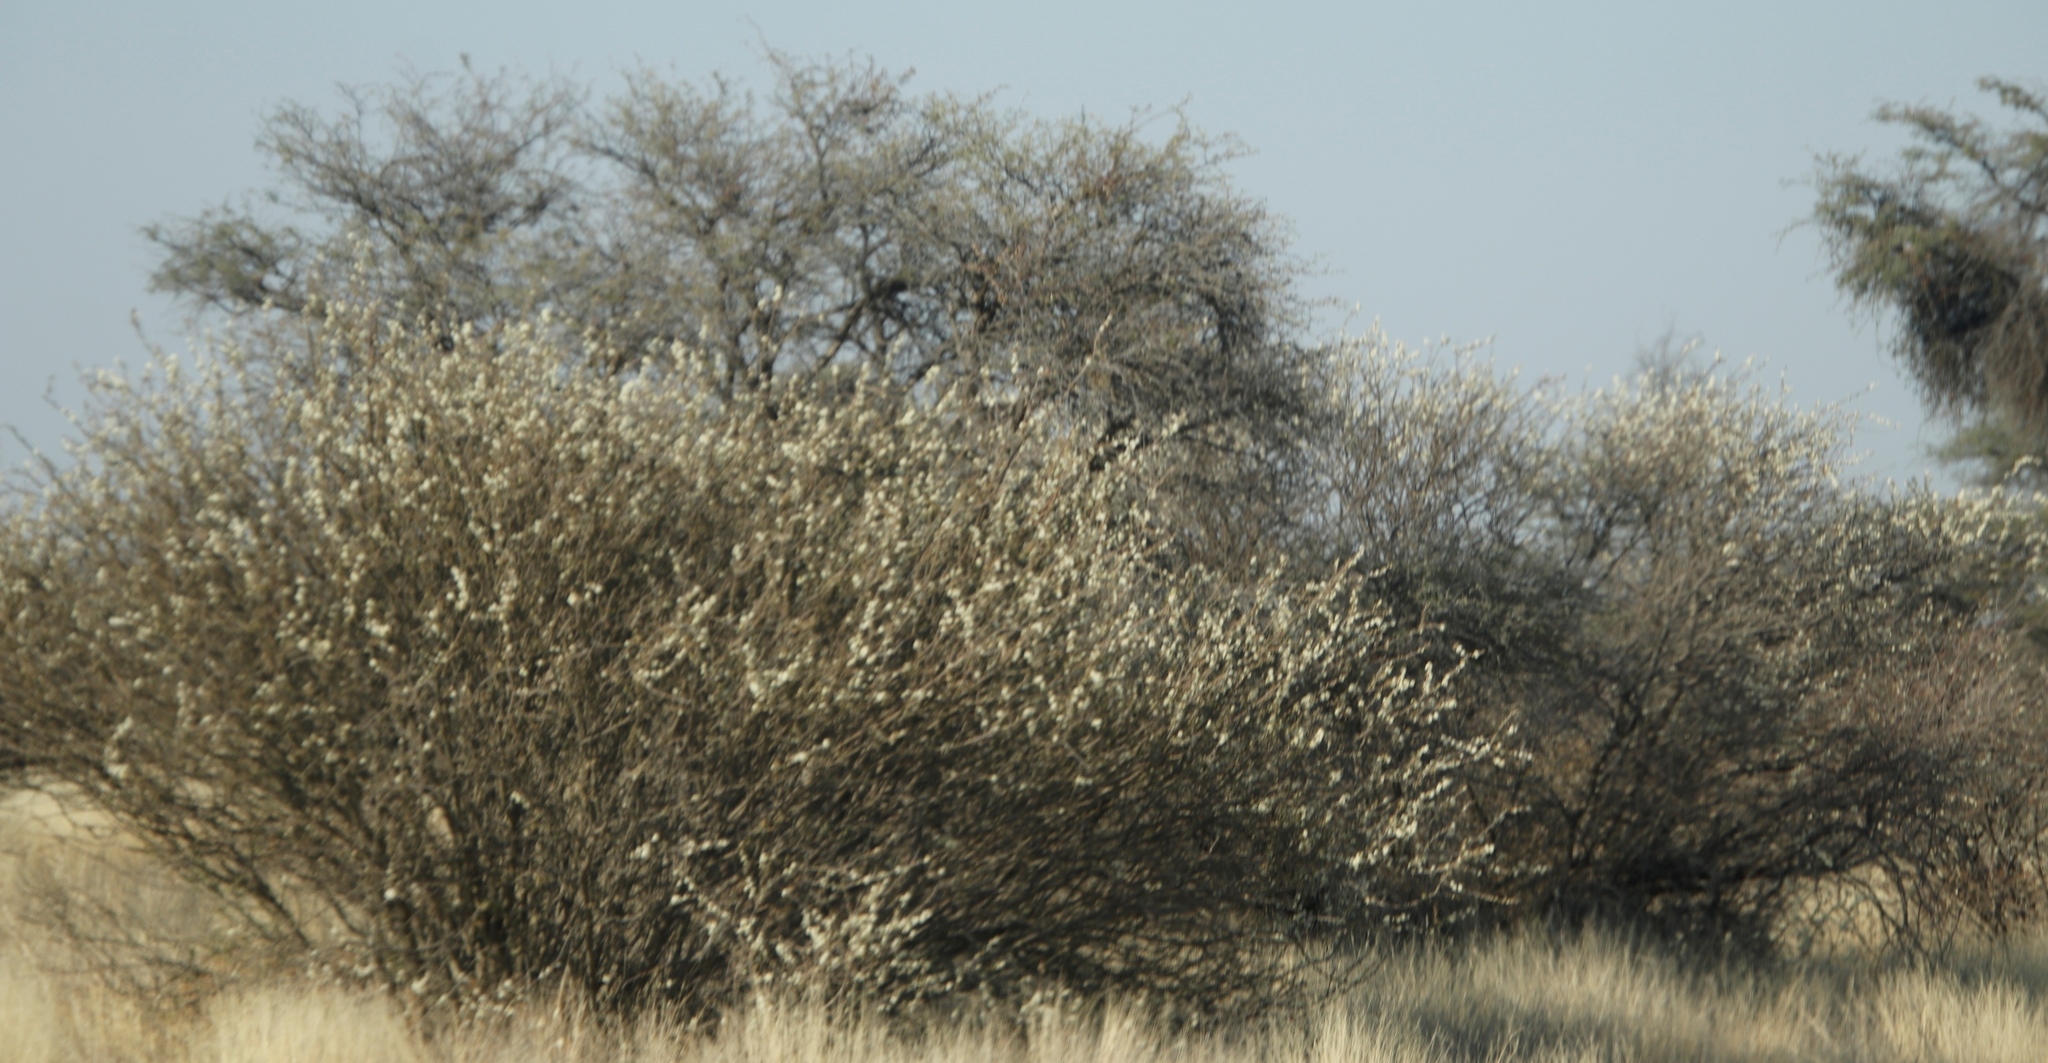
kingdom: Plantae
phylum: Tracheophyta
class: Magnoliopsida
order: Fabales
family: Fabaceae
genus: Senegalia
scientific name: Senegalia mellifera
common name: Hookthorn
